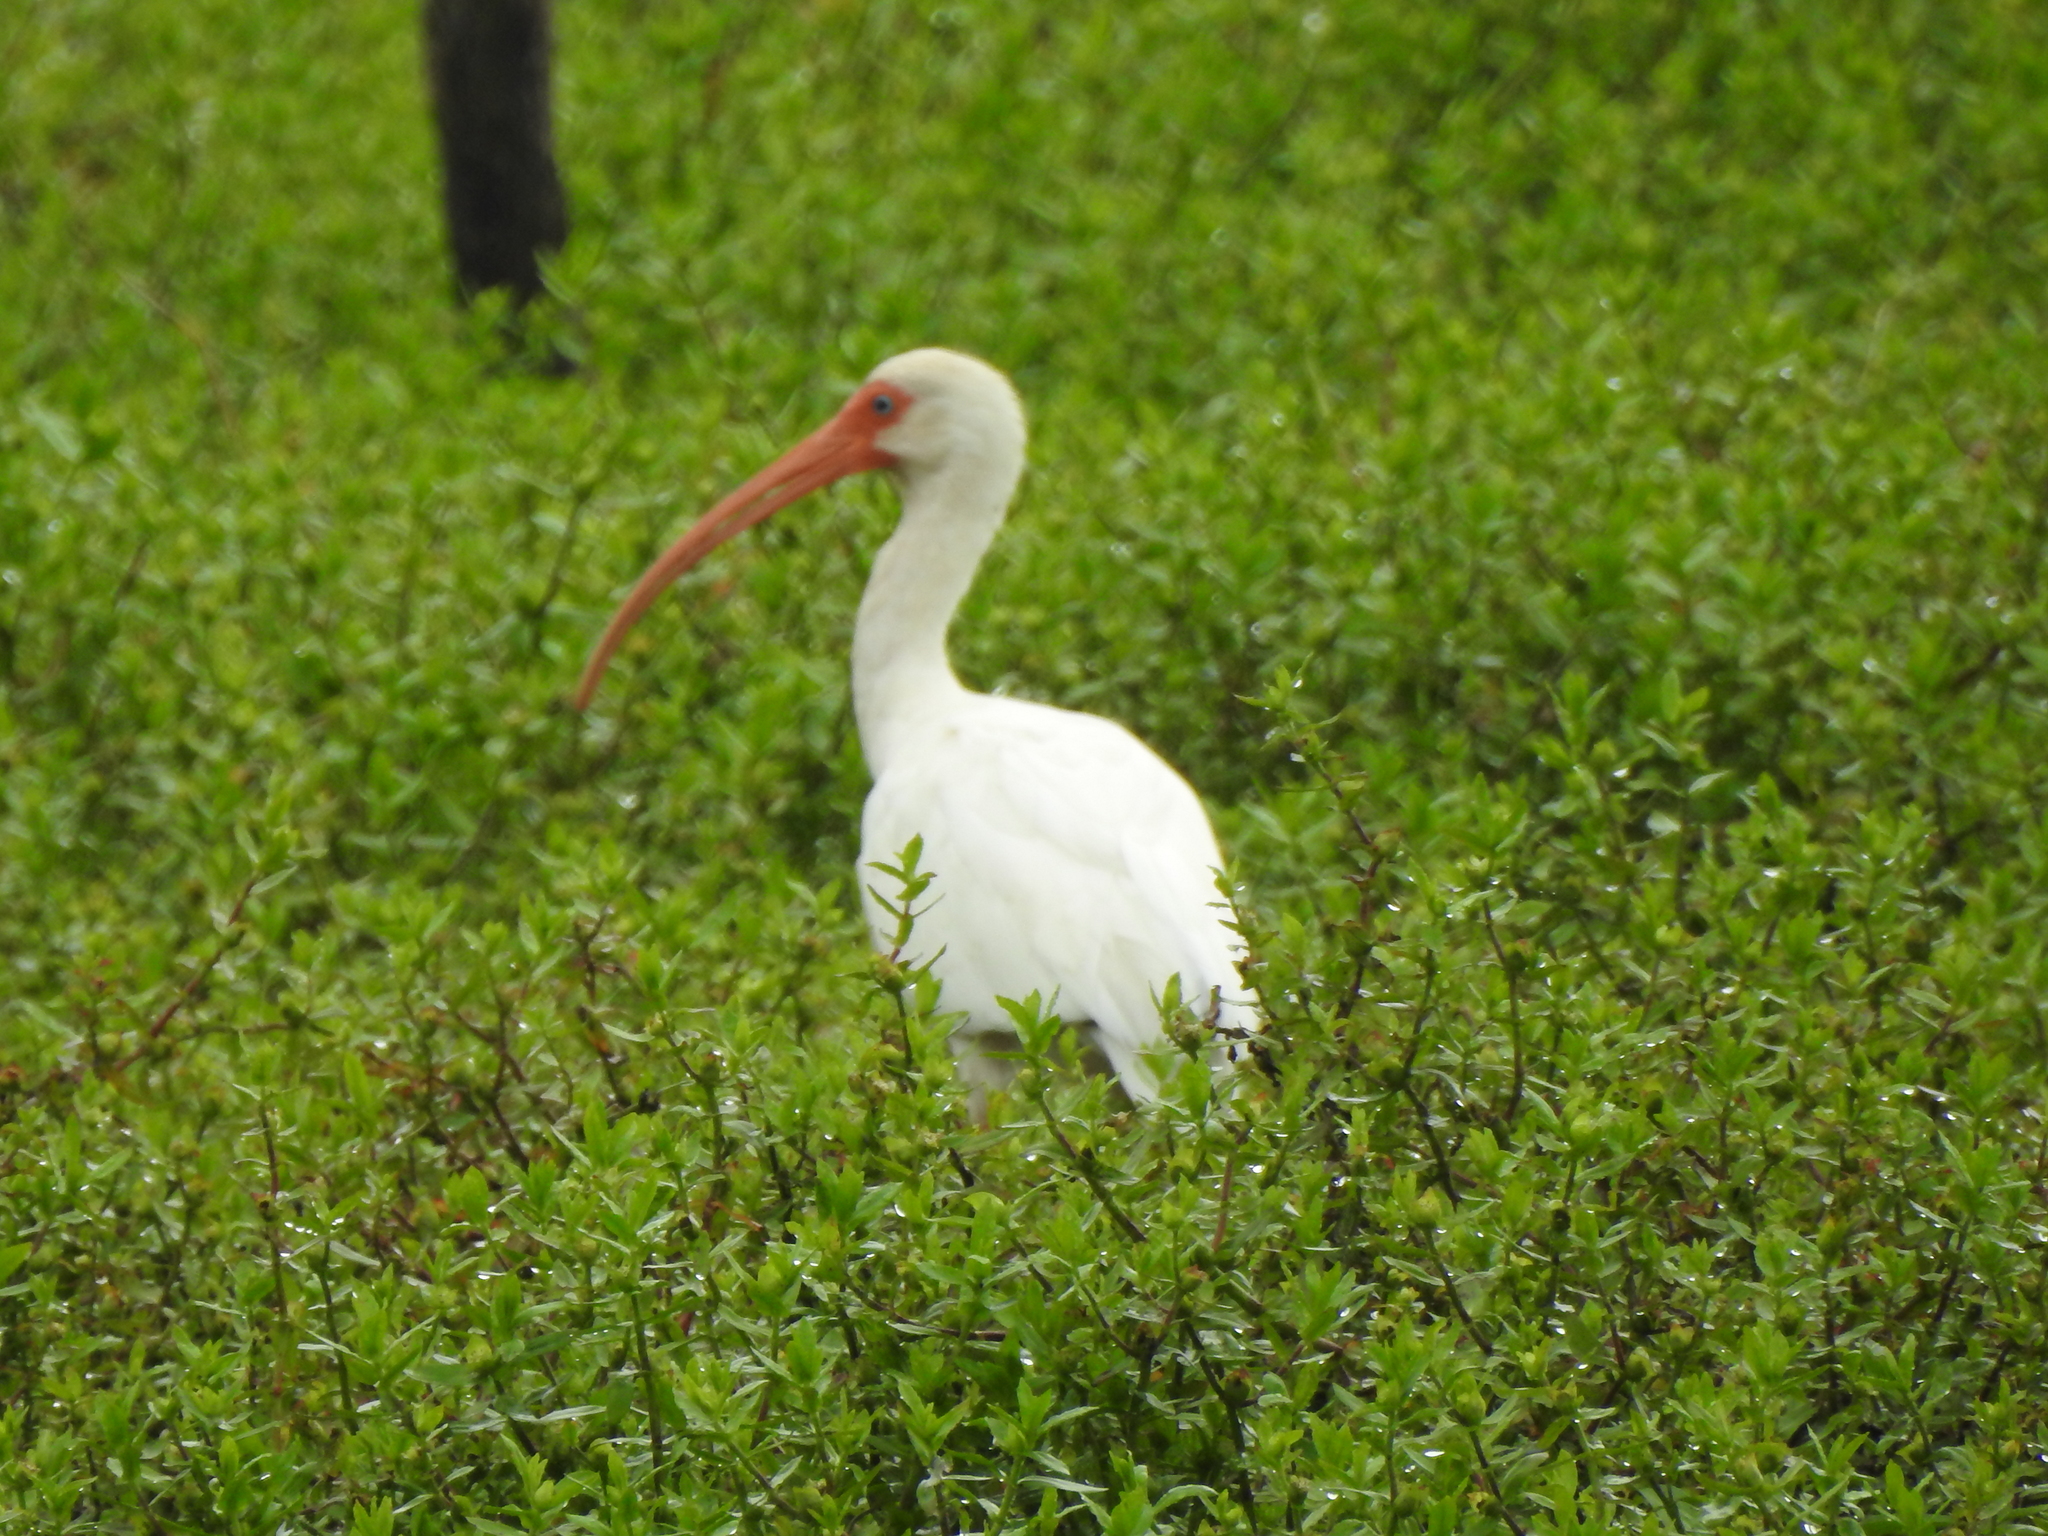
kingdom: Animalia
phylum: Chordata
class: Aves
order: Pelecaniformes
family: Threskiornithidae
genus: Eudocimus
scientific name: Eudocimus albus
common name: White ibis
